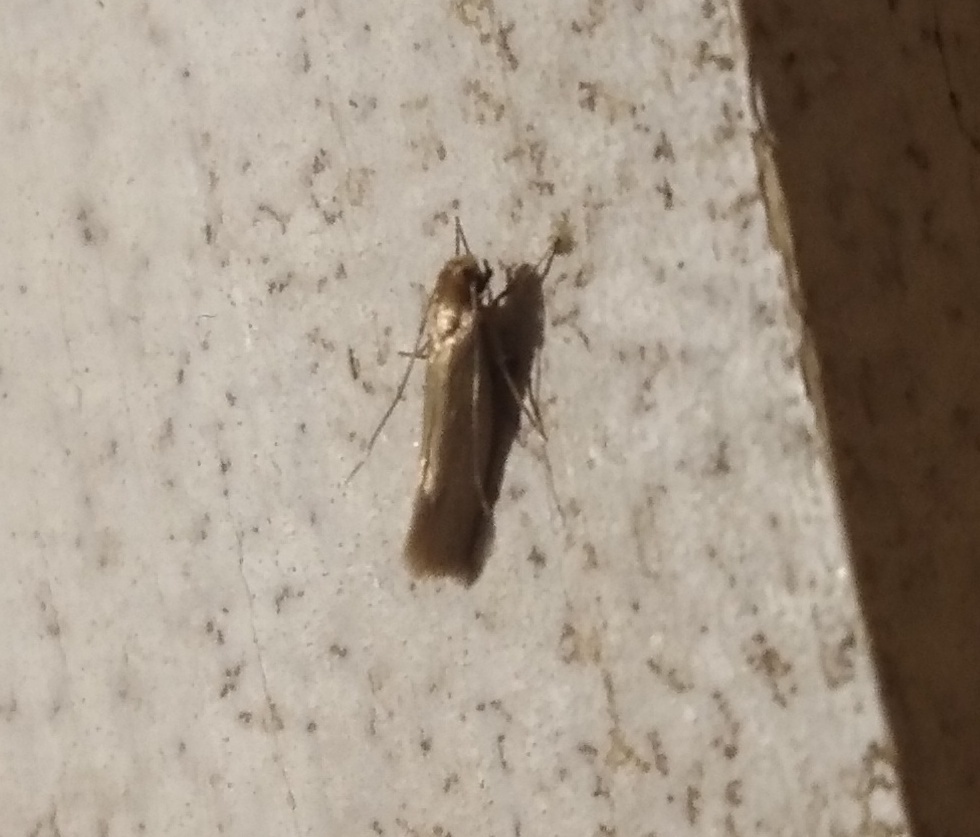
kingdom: Animalia
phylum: Arthropoda
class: Insecta
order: Lepidoptera
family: Tineidae
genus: Tineola
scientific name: Tineola bisselliella
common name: Webbing clothes moth
